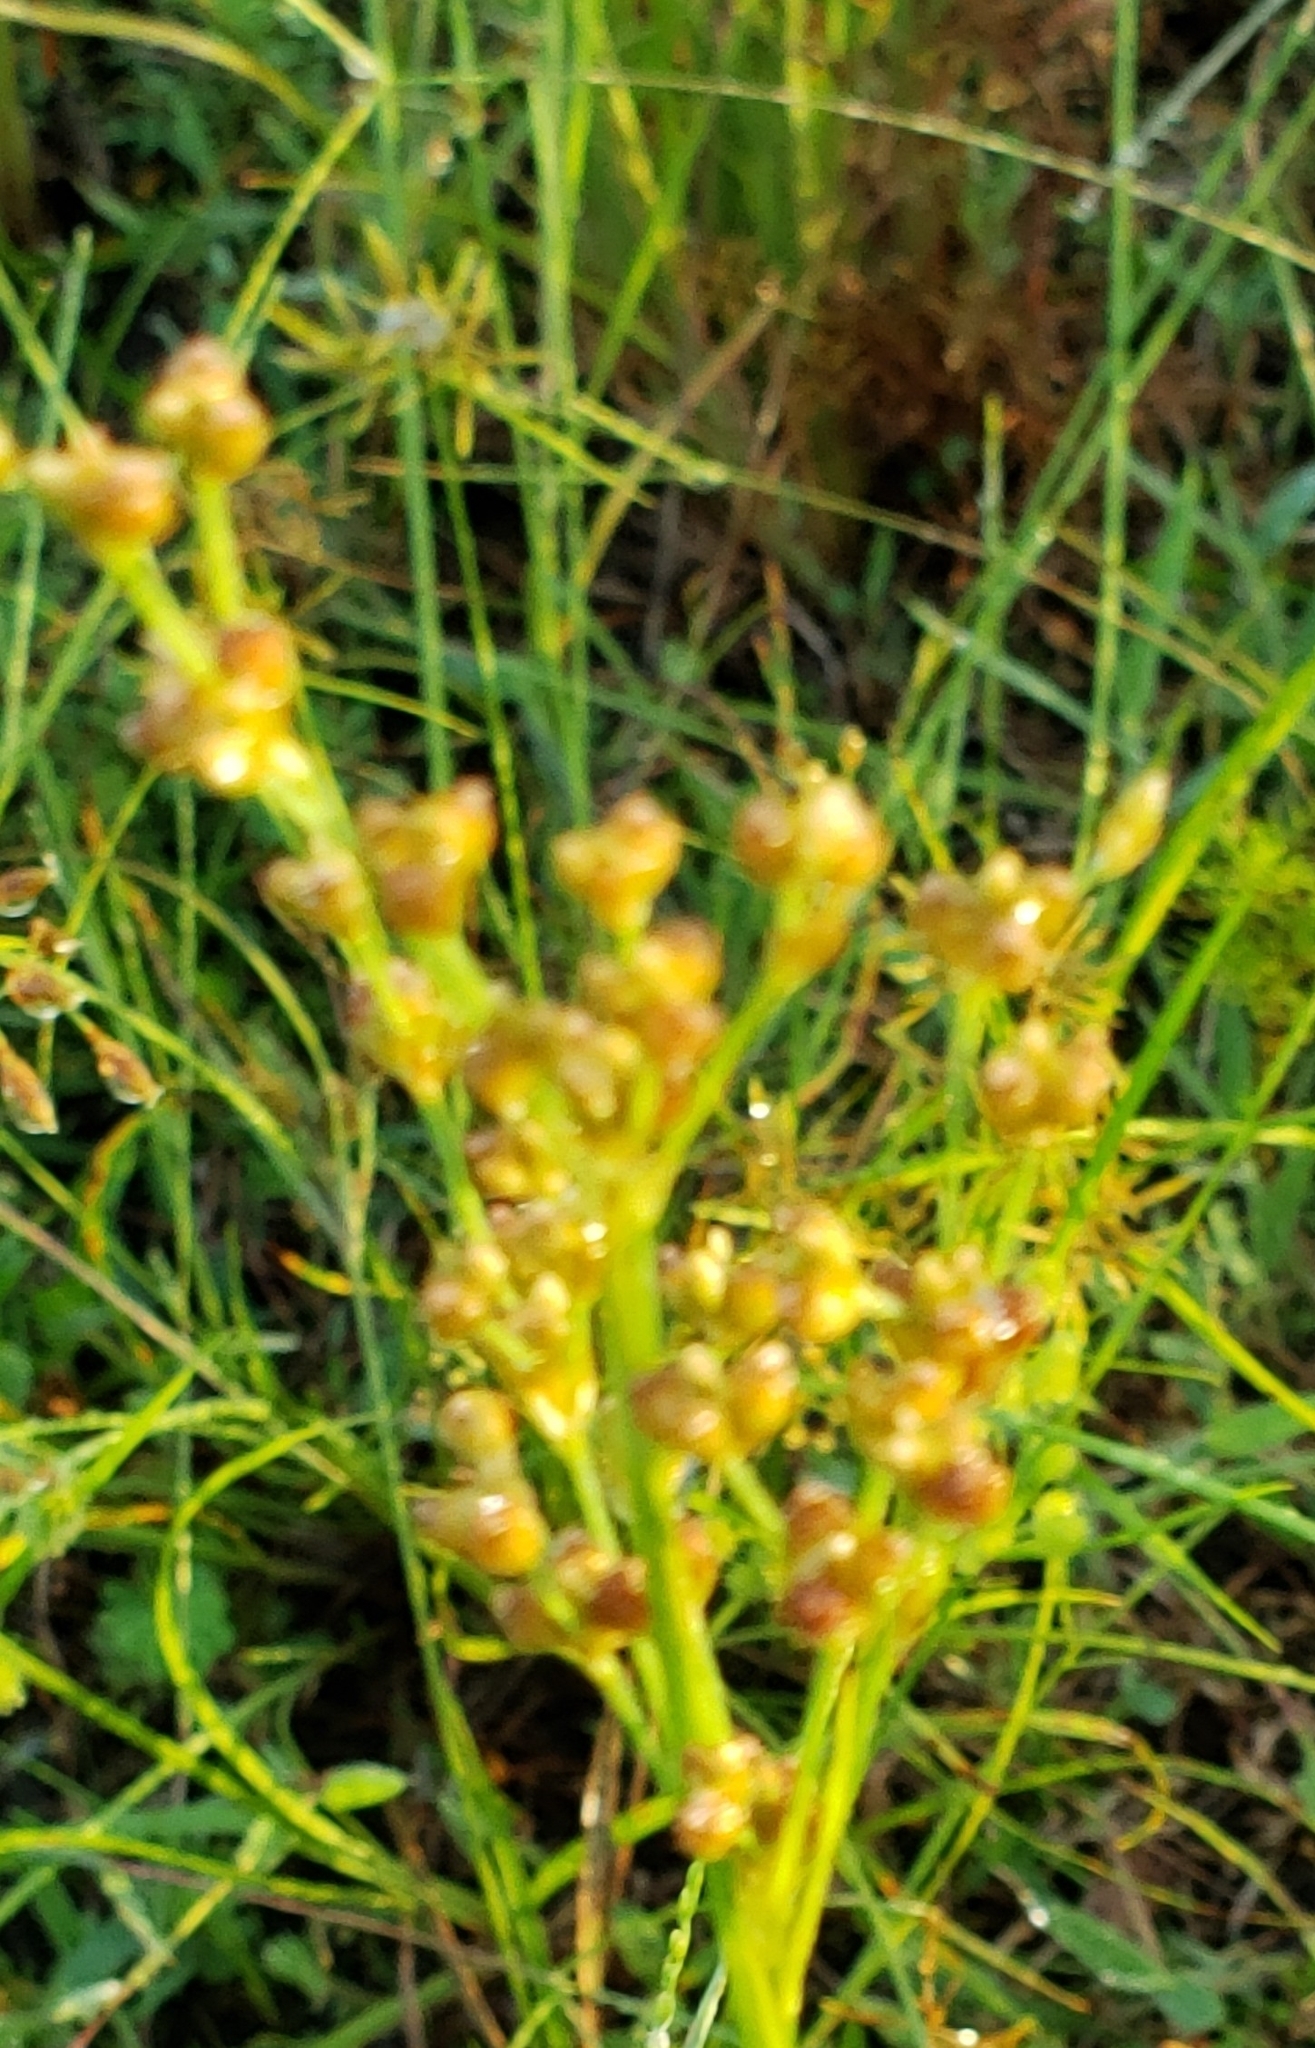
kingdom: Plantae
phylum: Tracheophyta
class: Liliopsida
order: Poales
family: Cyperaceae
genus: Cyperus
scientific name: Cyperus surinamensis
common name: Tropical flat sedge
